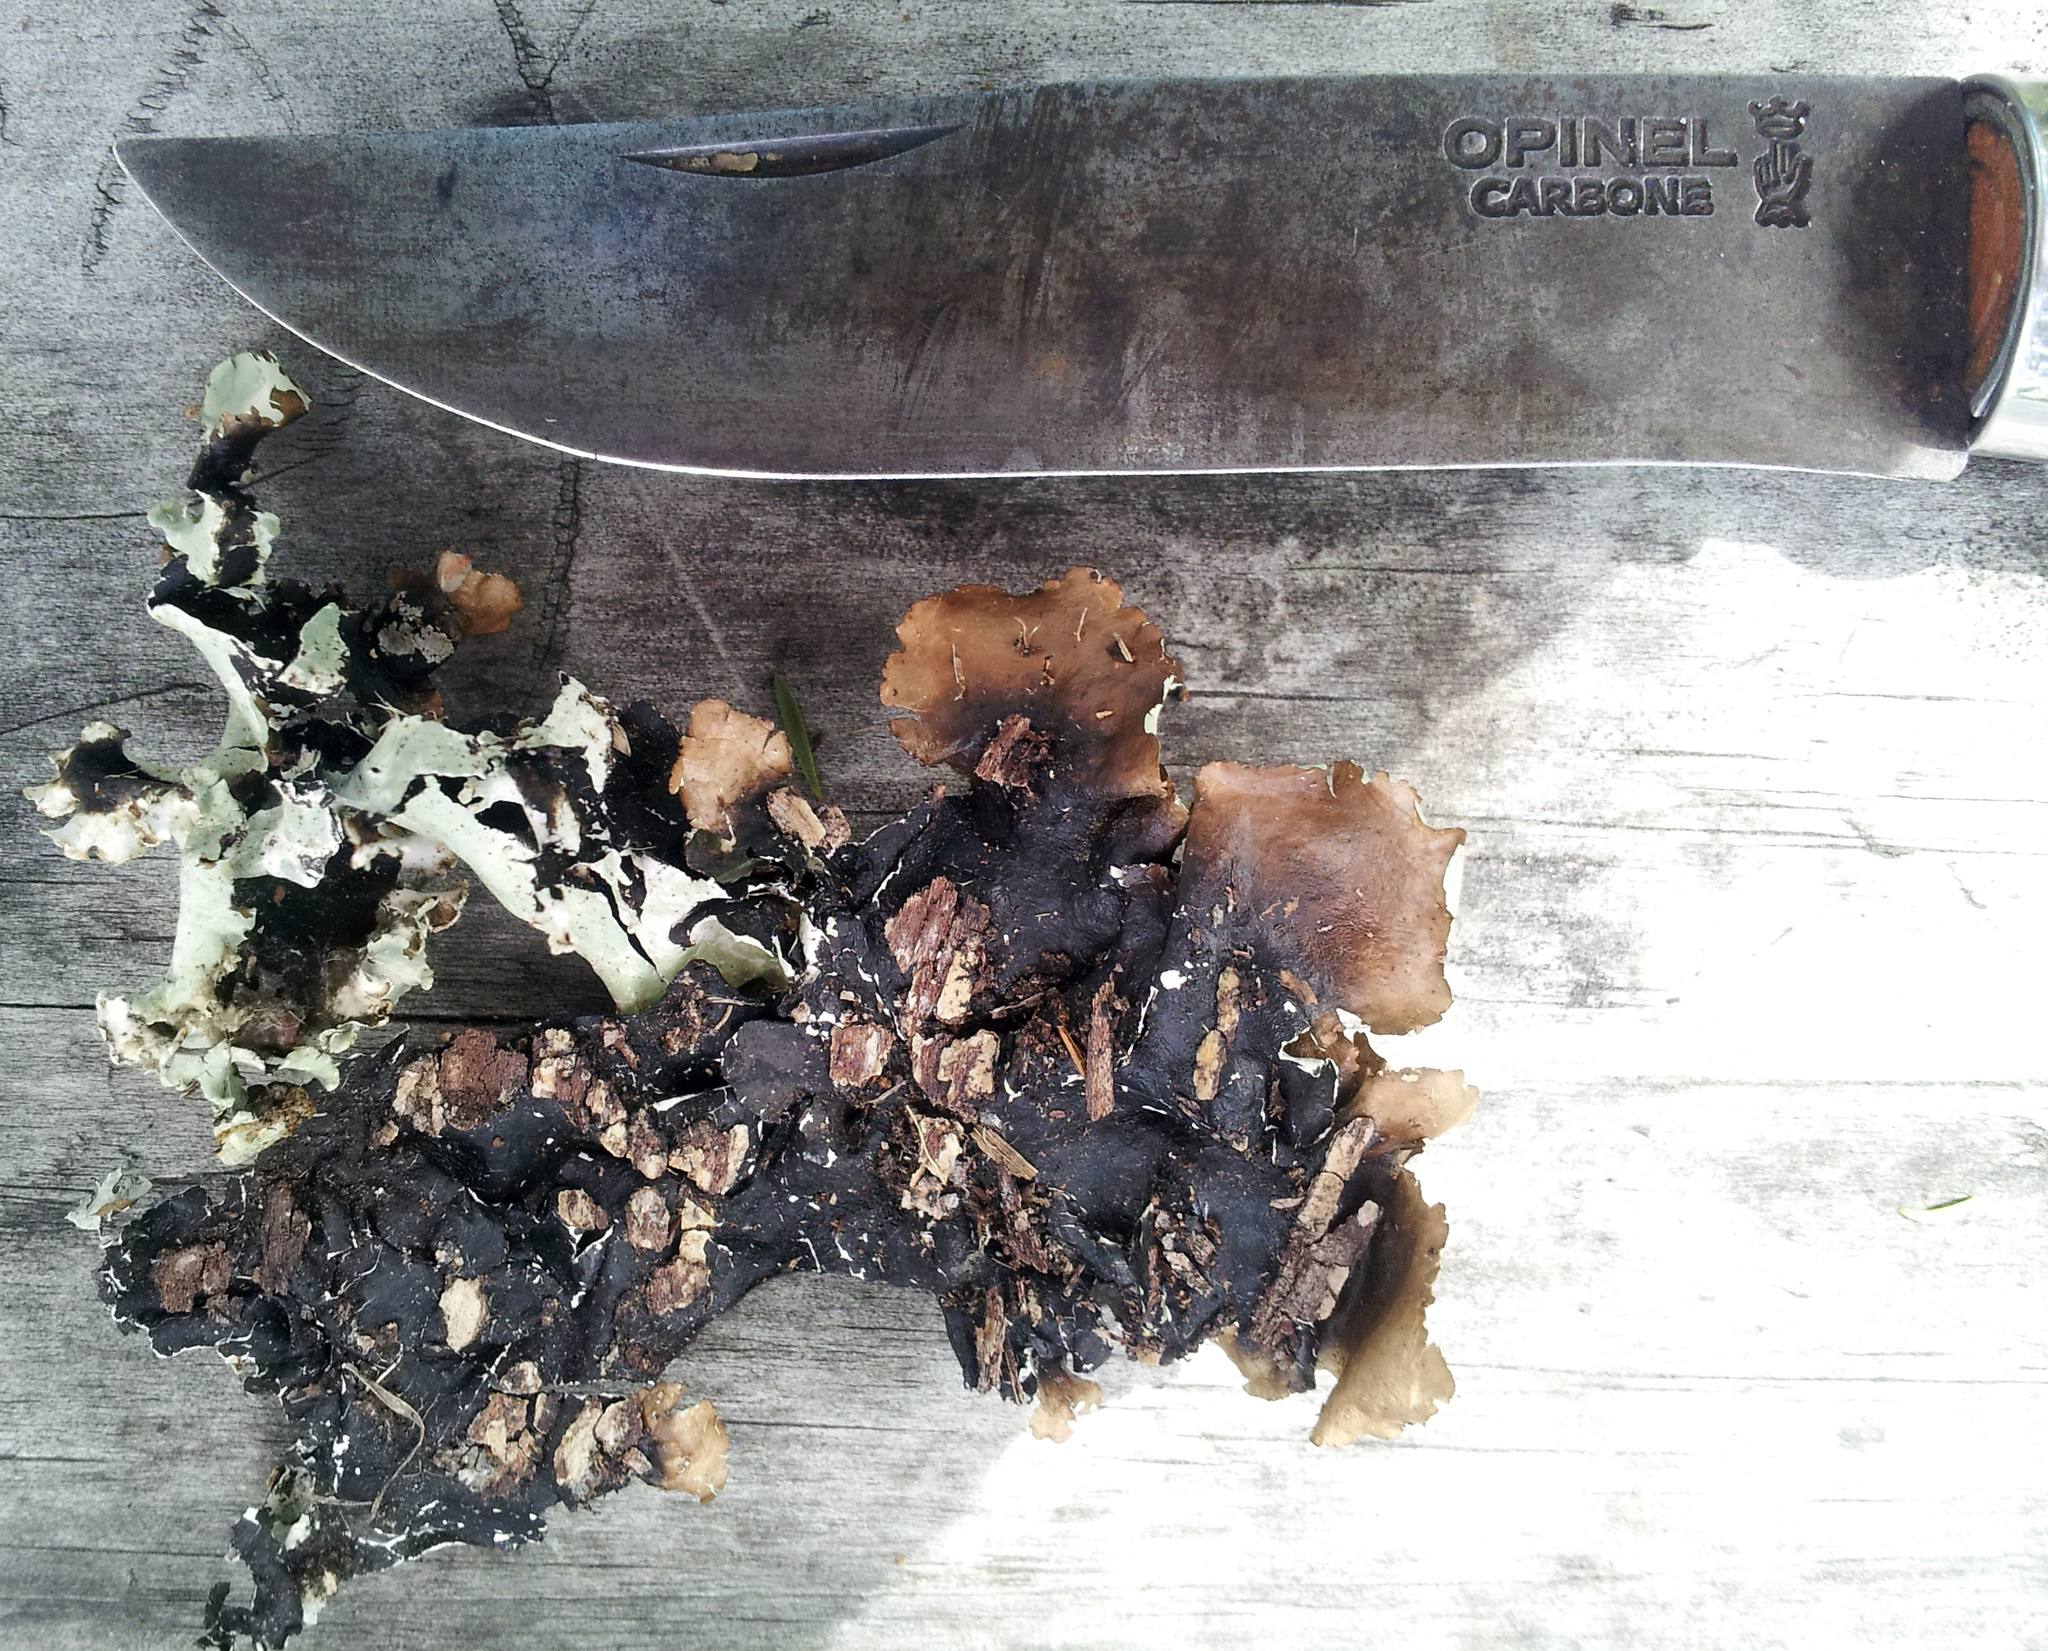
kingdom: Fungi
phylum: Ascomycota
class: Lecanoromycetes
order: Lecanorales
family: Parmeliaceae
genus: Parmotrema
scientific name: Parmotrema robustum
